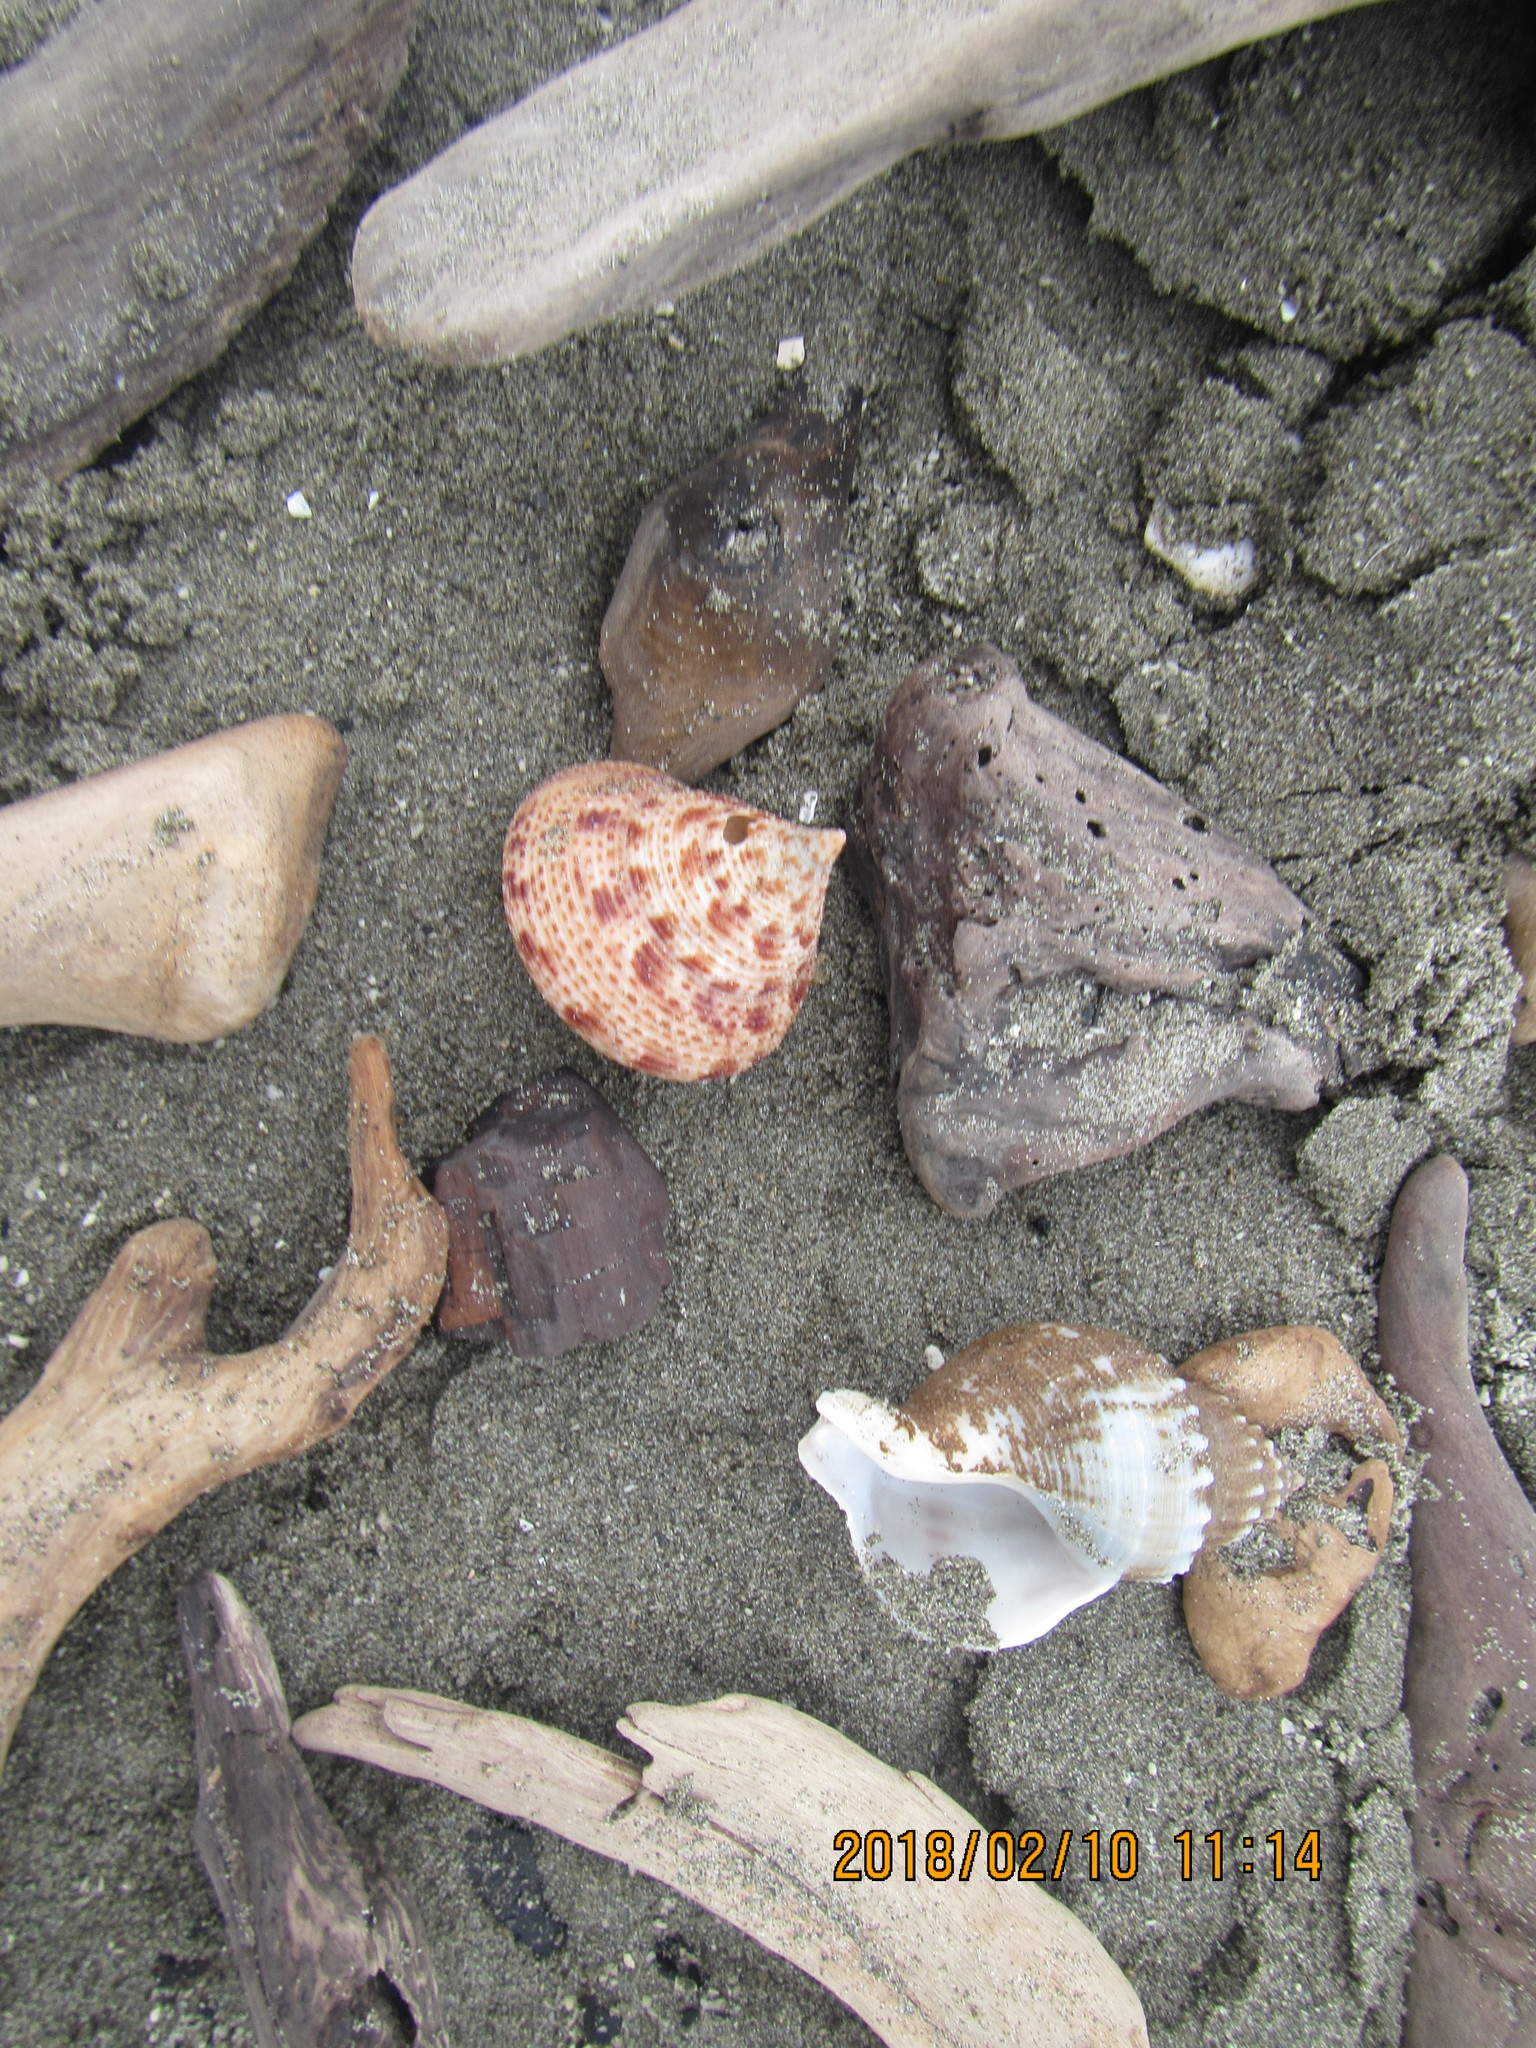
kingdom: Animalia
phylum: Mollusca
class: Gastropoda
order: Trochida
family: Calliostomatidae
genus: Maurea
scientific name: Maurea pellucida
